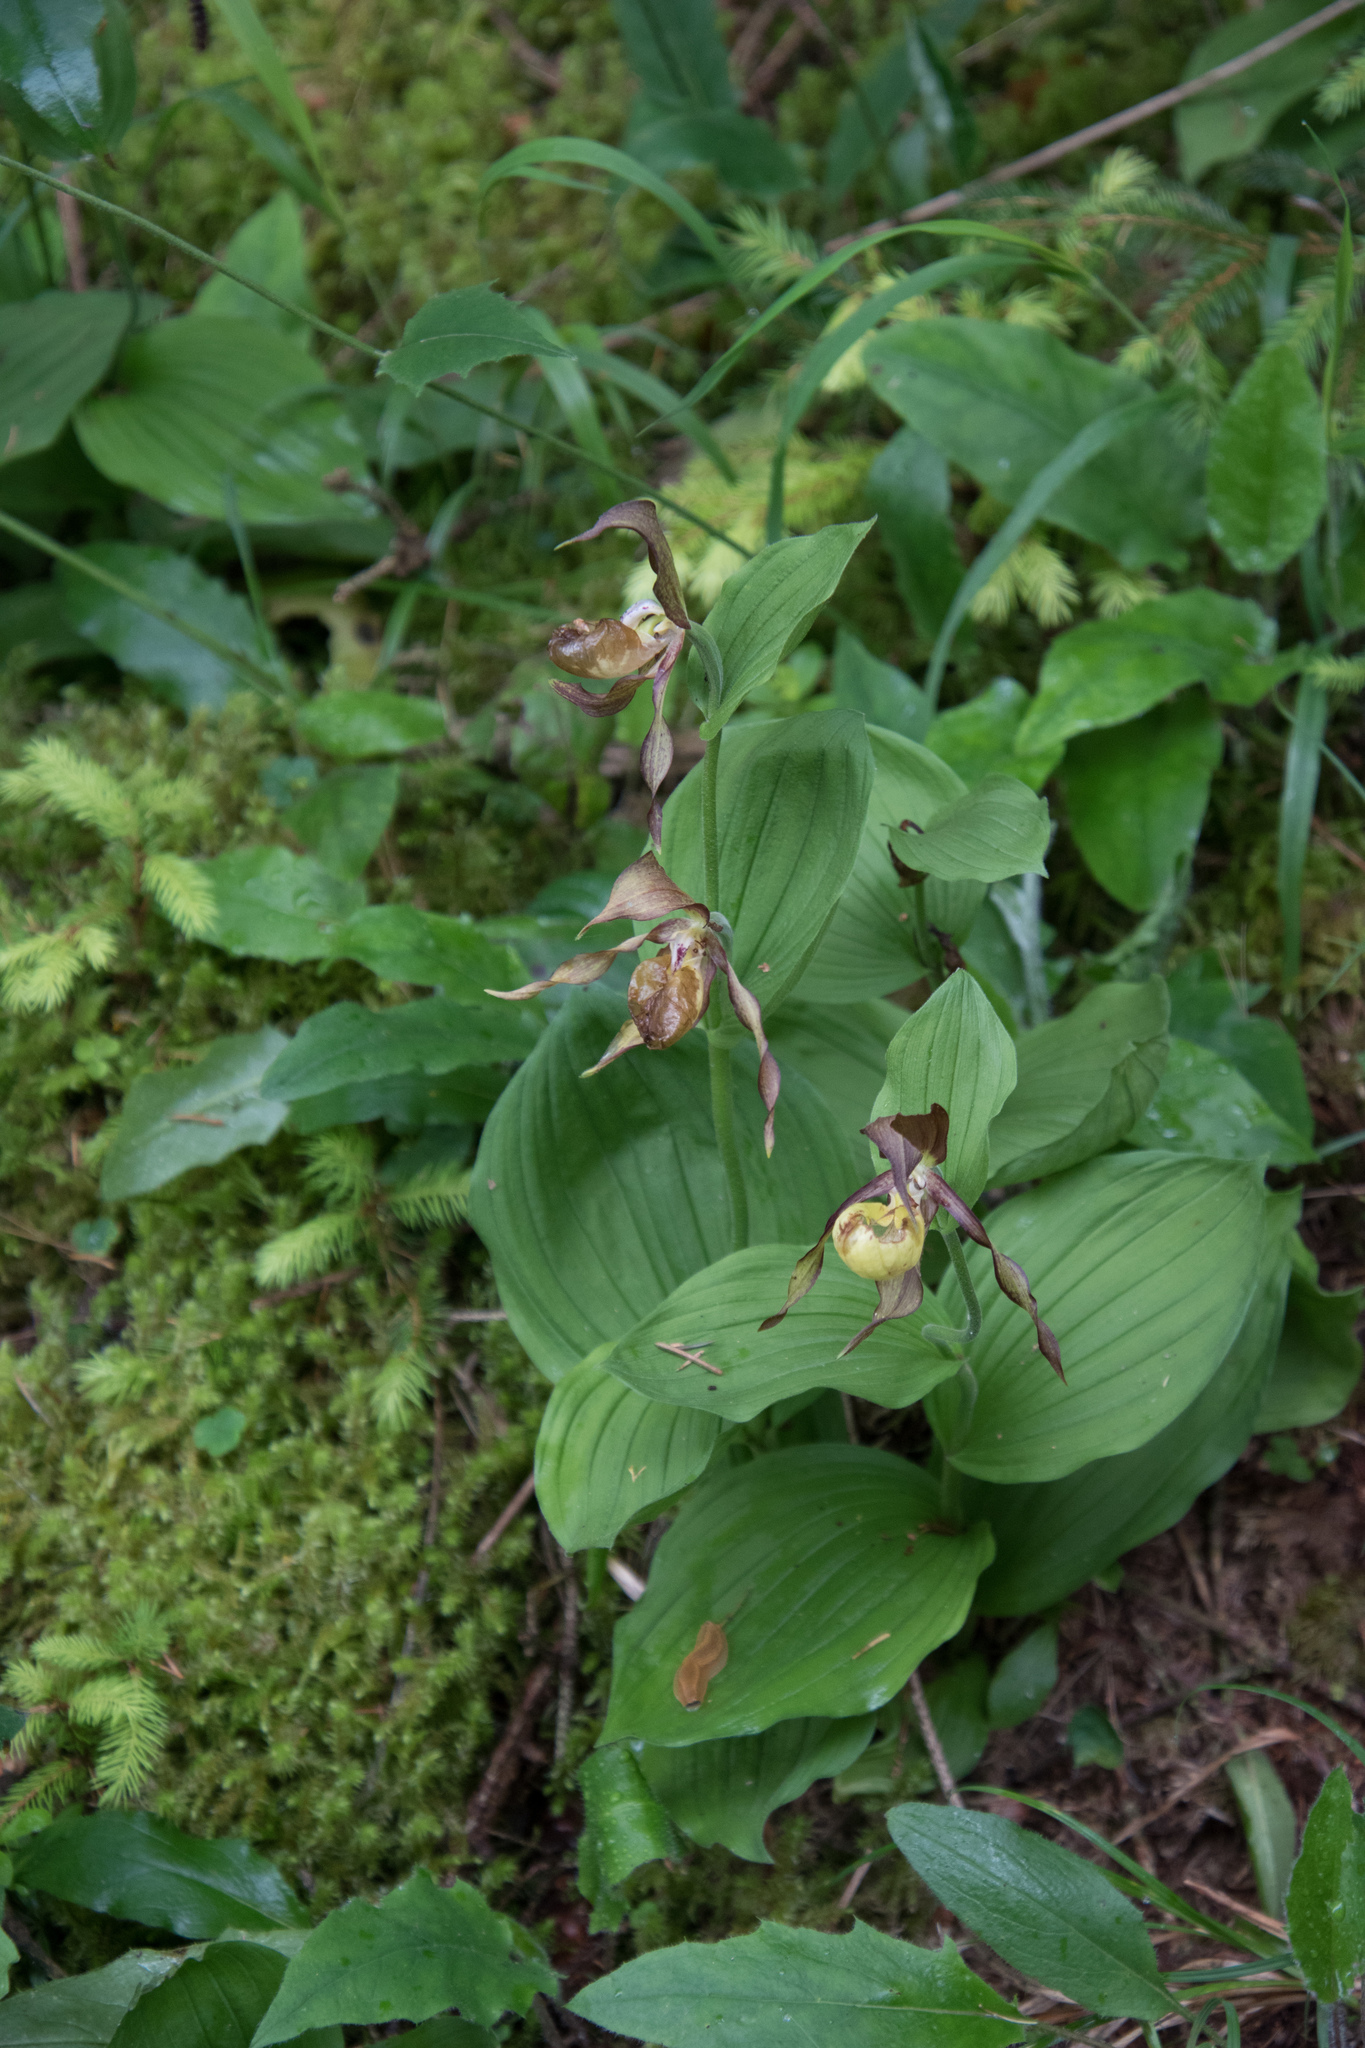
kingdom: Plantae
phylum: Tracheophyta
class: Liliopsida
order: Asparagales
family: Orchidaceae
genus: Cypripedium
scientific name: Cypripedium calceolus
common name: Lady's-slipper
